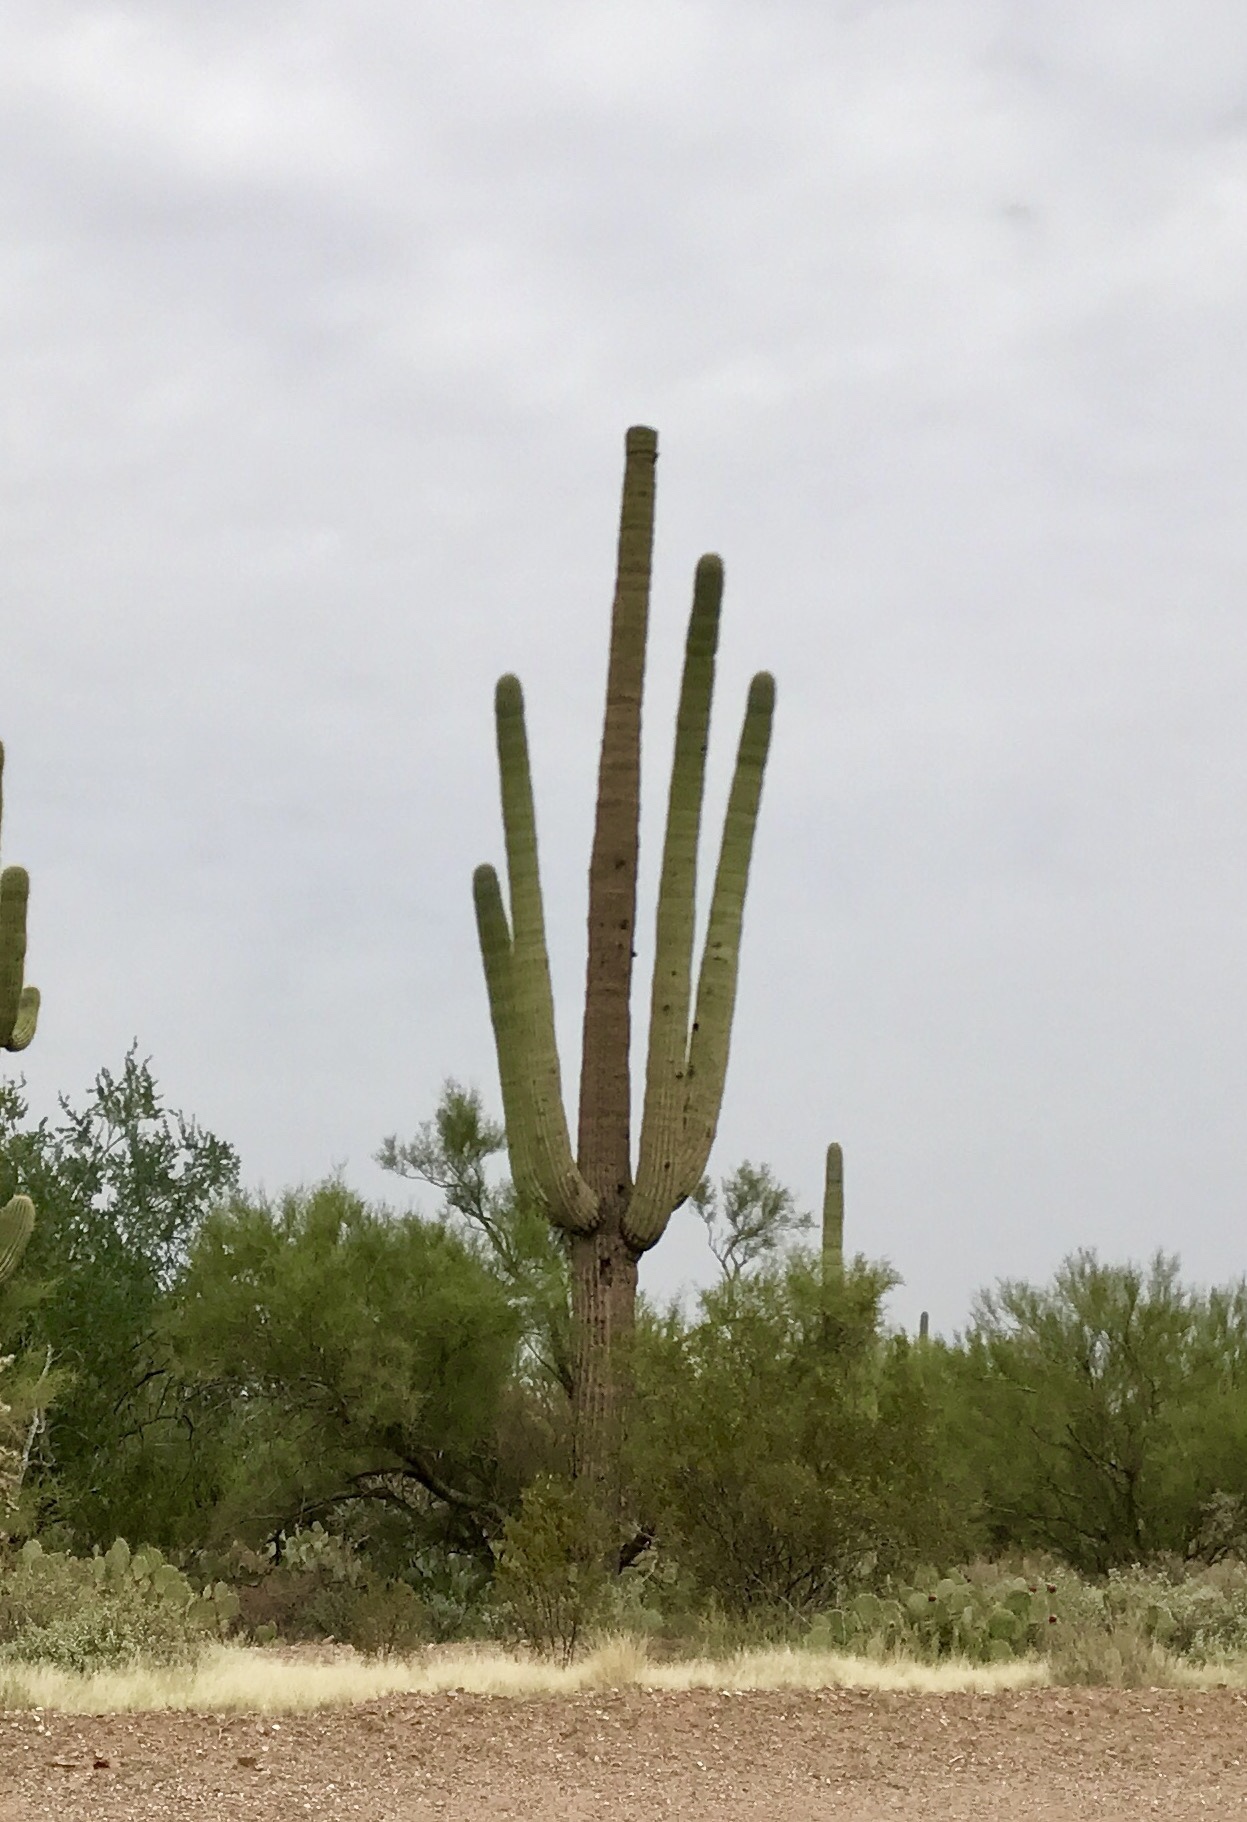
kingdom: Plantae
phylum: Tracheophyta
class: Magnoliopsida
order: Caryophyllales
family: Cactaceae
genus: Carnegiea
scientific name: Carnegiea gigantea
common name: Saguaro
